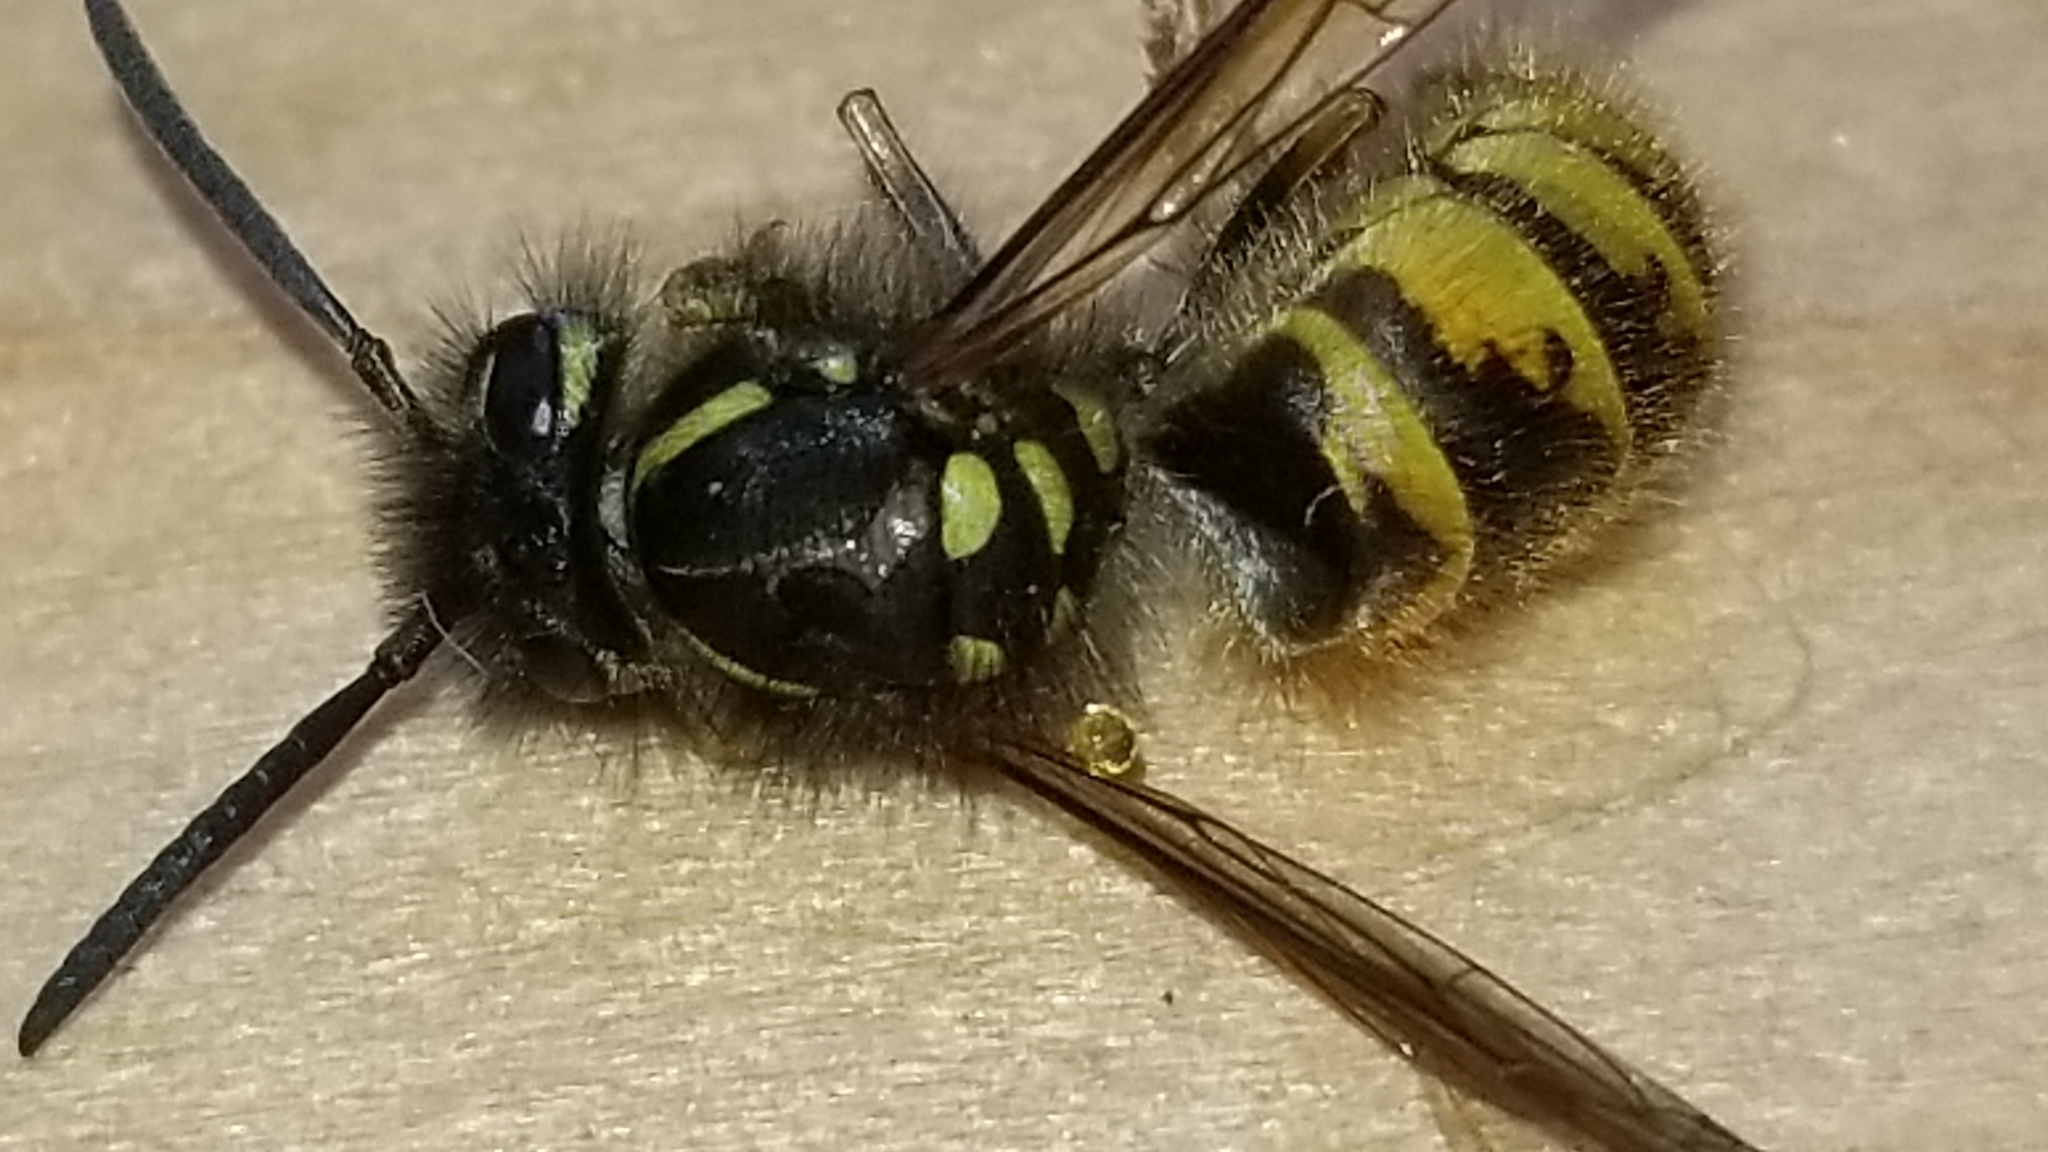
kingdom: Animalia
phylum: Arthropoda
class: Insecta
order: Hymenoptera
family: Vespidae
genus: Vespula
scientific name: Vespula vulgaris
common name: Common wasp
